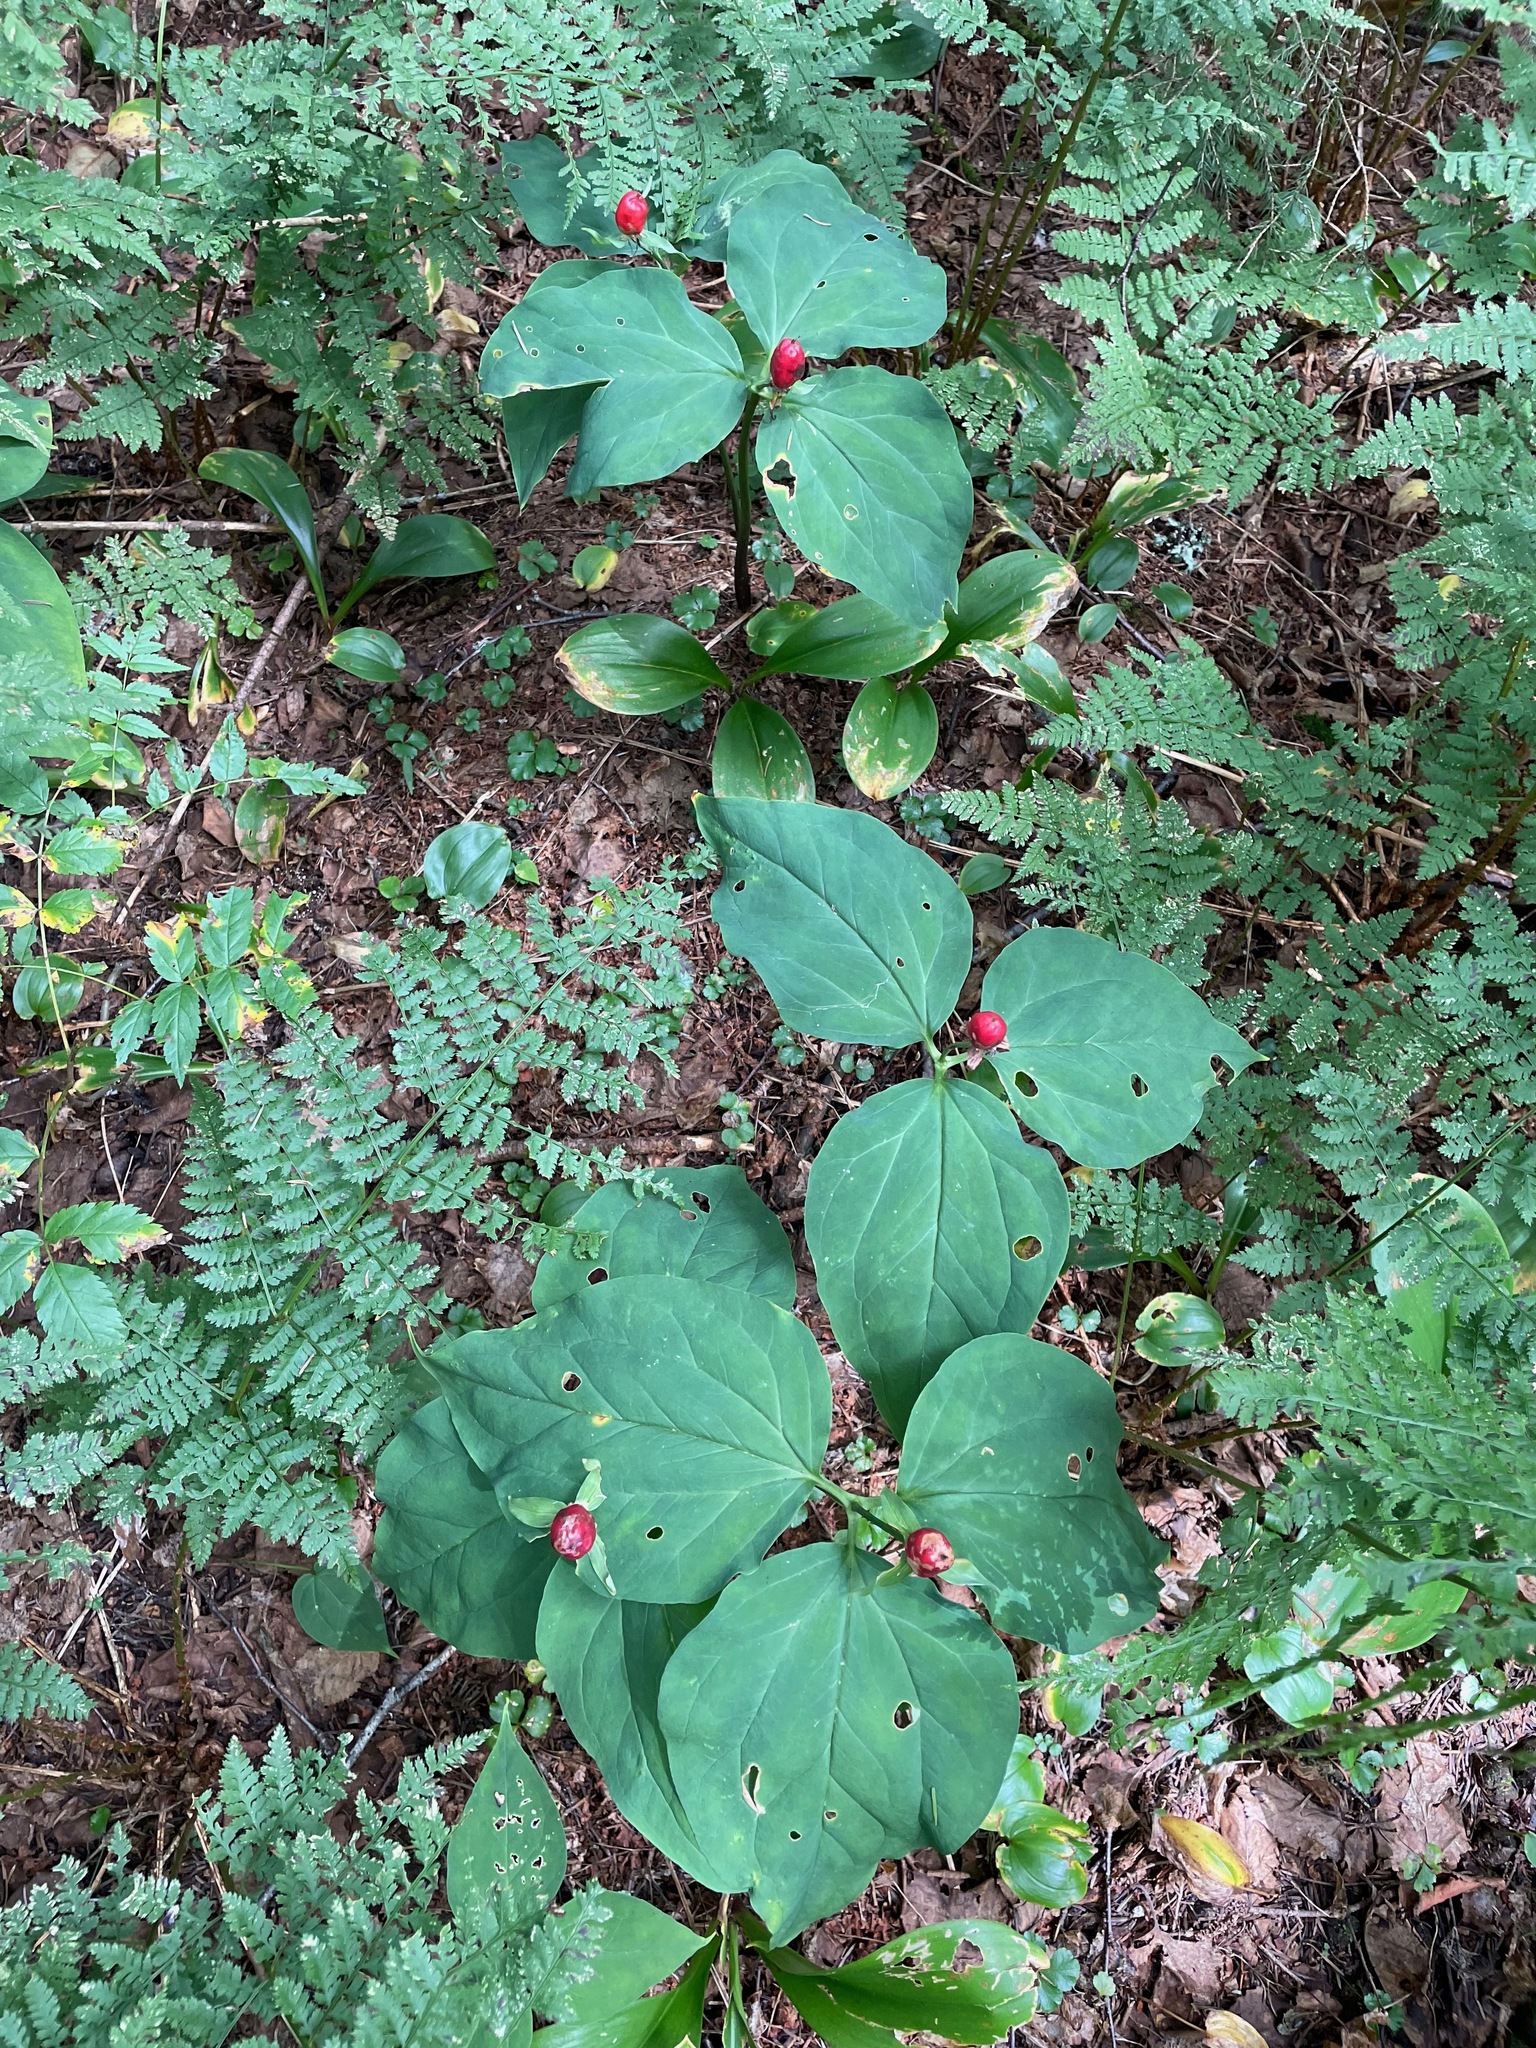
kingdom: Plantae
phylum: Tracheophyta
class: Liliopsida
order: Liliales
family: Melanthiaceae
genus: Trillium
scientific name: Trillium undulatum
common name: Paint trillium
